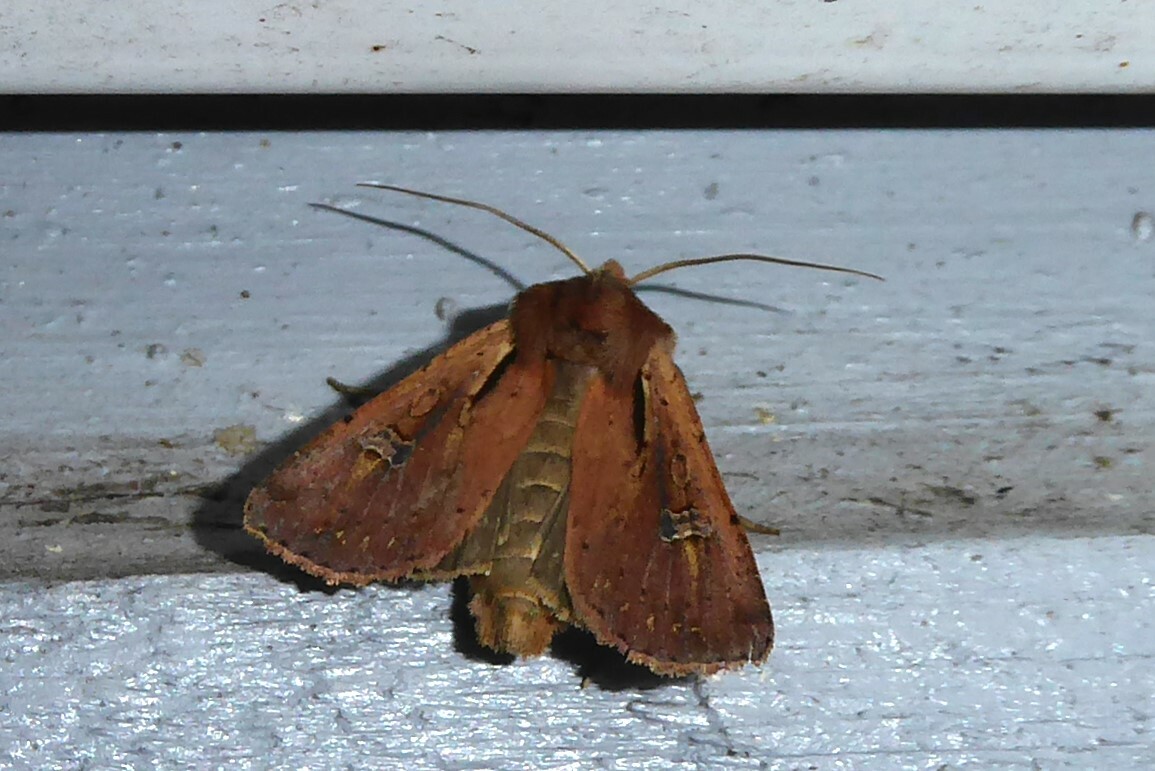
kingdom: Animalia
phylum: Arthropoda
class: Insecta
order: Lepidoptera
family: Noctuidae
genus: Ichneutica
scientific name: Ichneutica atristriga
